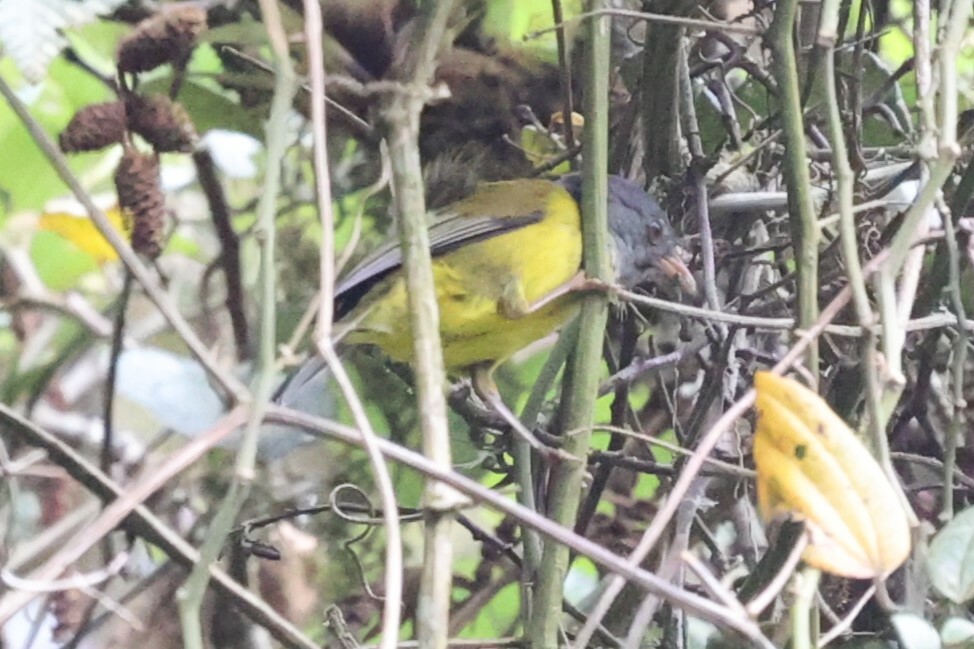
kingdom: Animalia
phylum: Chordata
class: Aves
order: Passeriformes
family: Thraupidae
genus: Cnemoscopus
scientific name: Cnemoscopus rubrirostris
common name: Grey-hooded bush tanager
